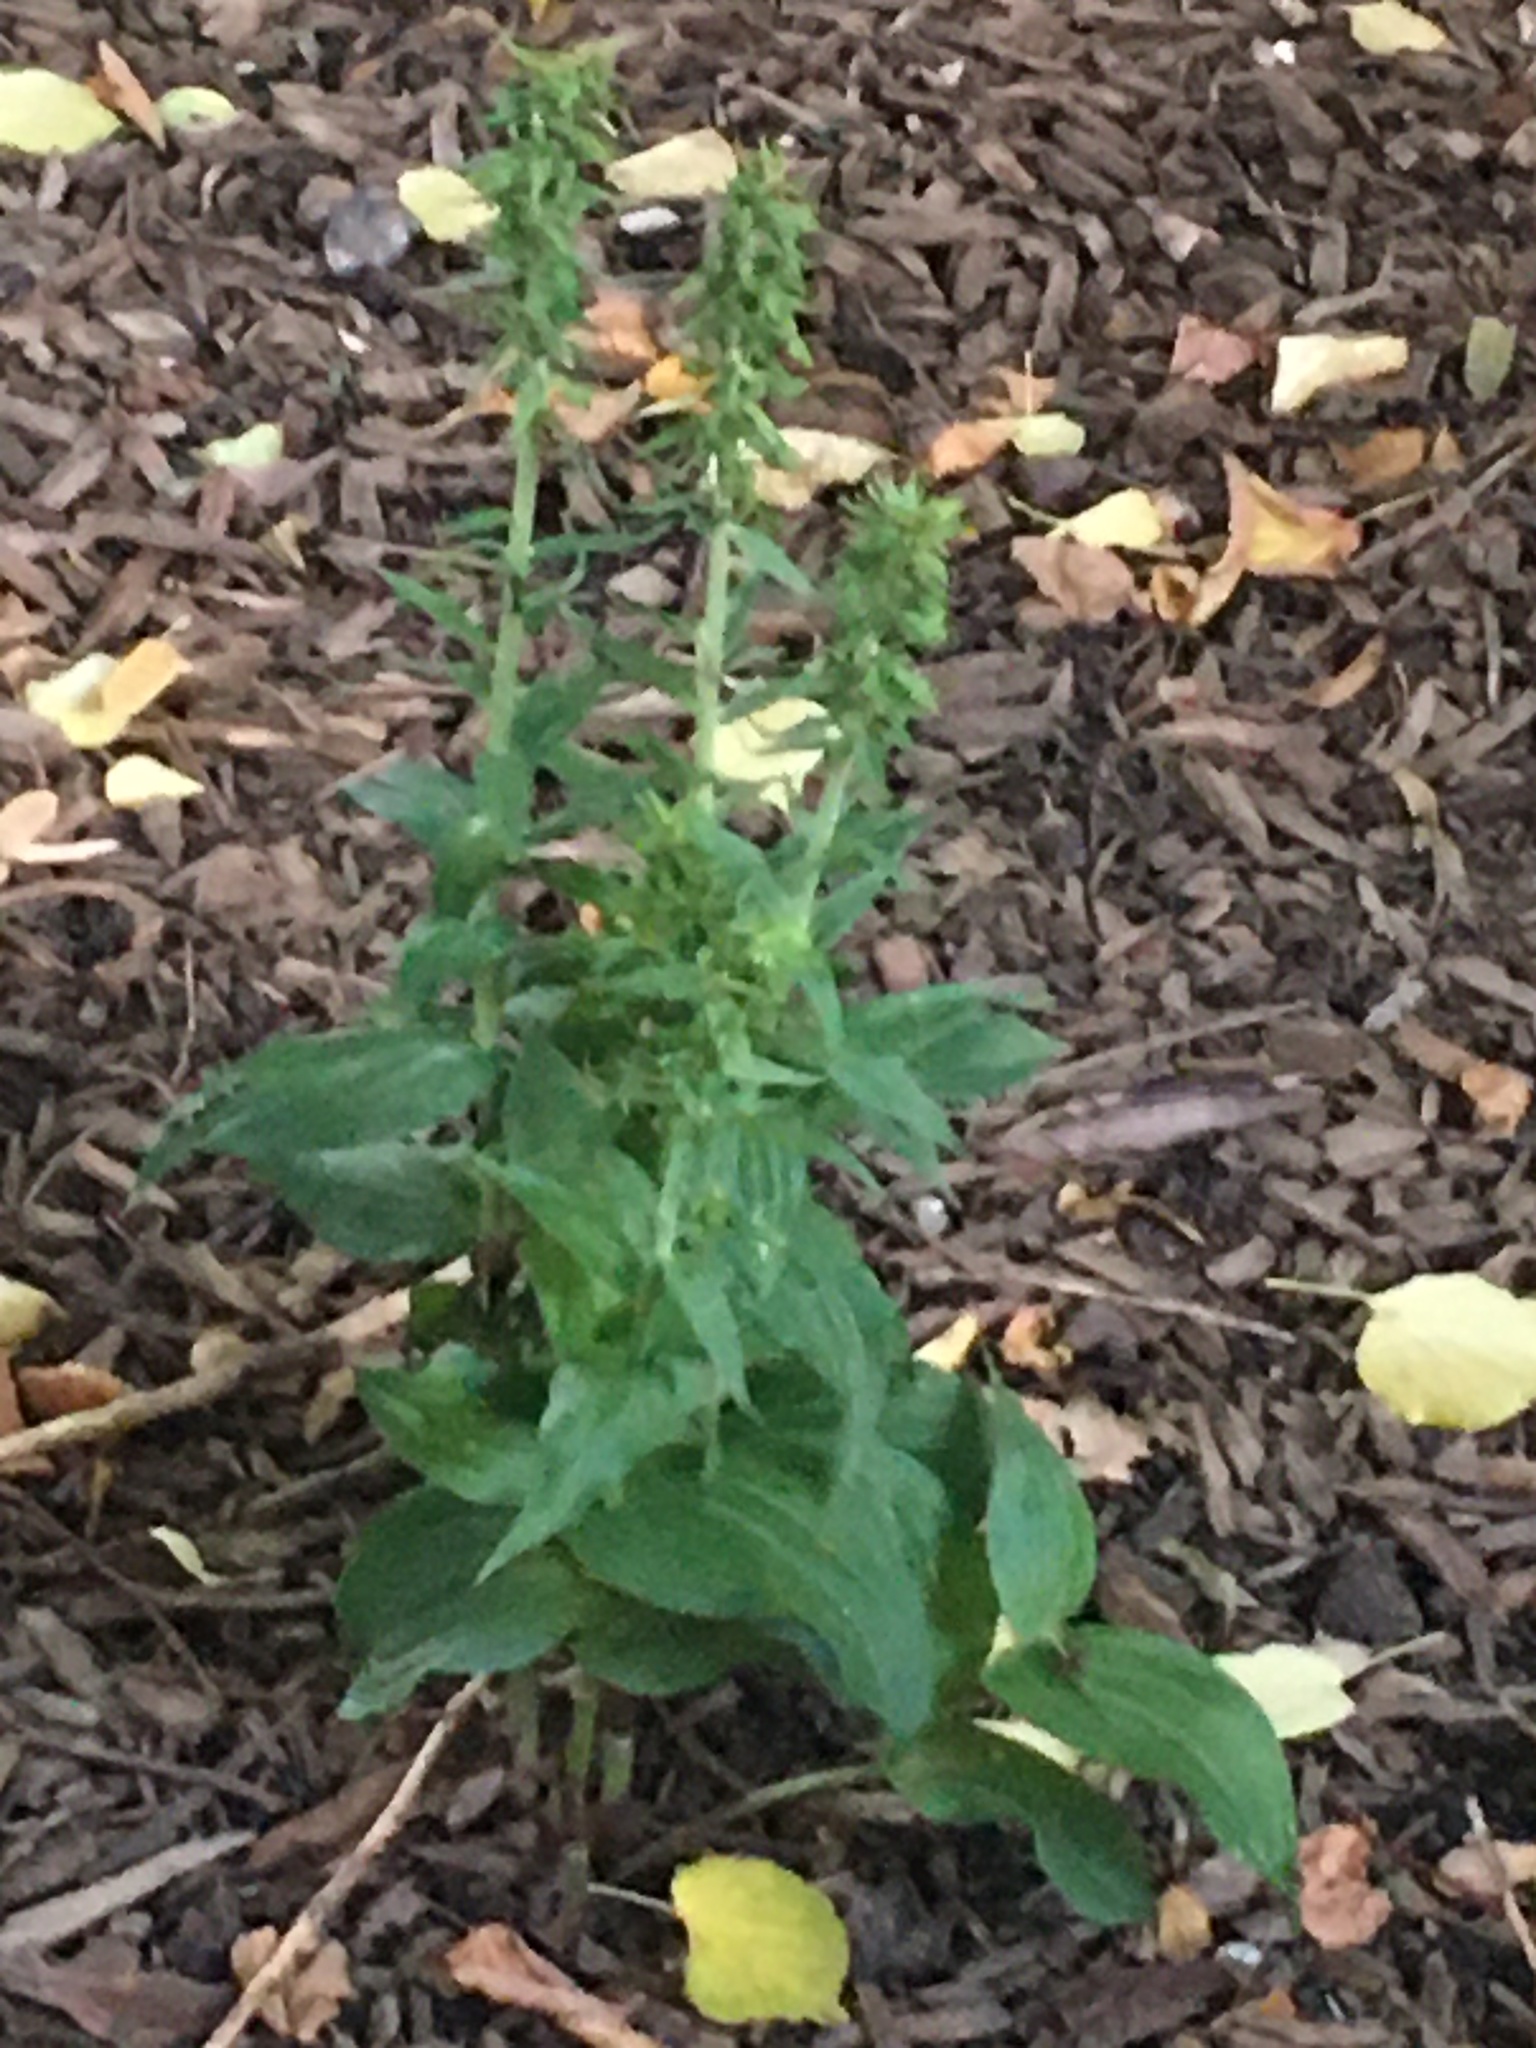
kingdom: Plantae
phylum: Tracheophyta
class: Liliopsida
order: Asparagales
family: Orchidaceae
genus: Epipactis
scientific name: Epipactis helleborine
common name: Broad-leaved helleborine
